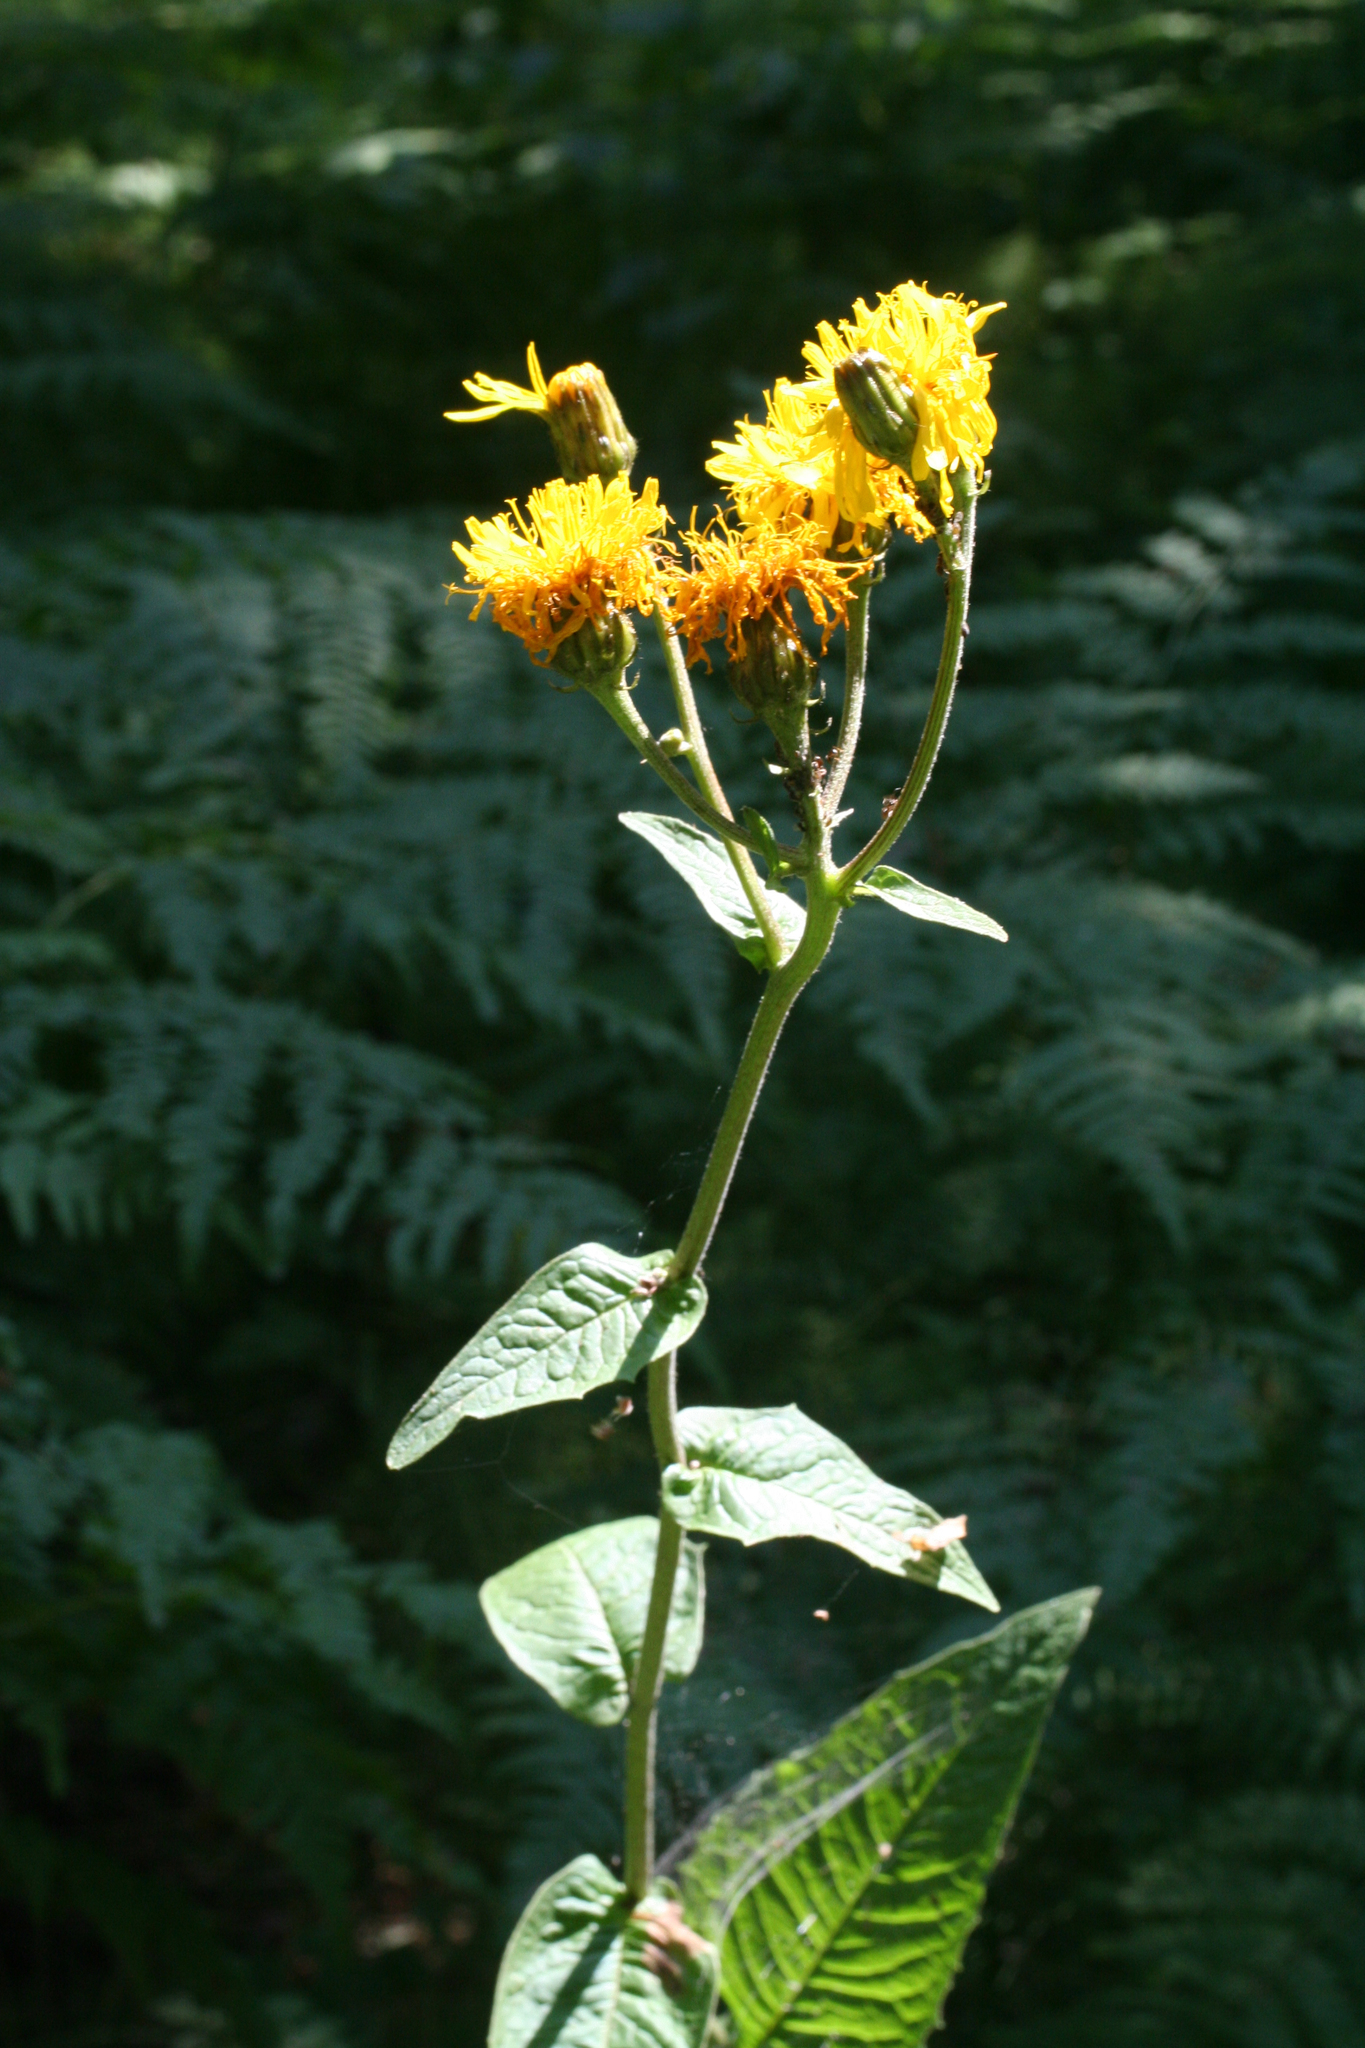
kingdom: Plantae
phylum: Tracheophyta
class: Magnoliopsida
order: Asterales
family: Asteraceae
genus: Crepis
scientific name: Crepis sibirica
